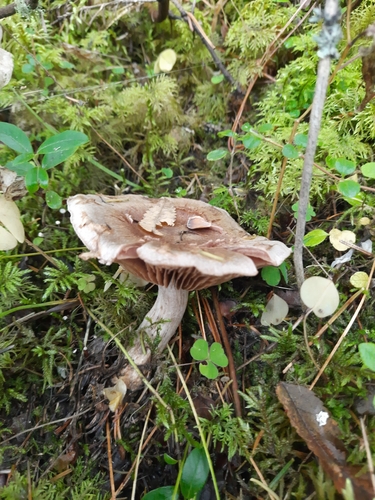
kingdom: Fungi
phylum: Basidiomycota
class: Agaricomycetes
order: Agaricales
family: Cortinariaceae
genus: Cortinarius
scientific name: Cortinarius alboviolaceus
